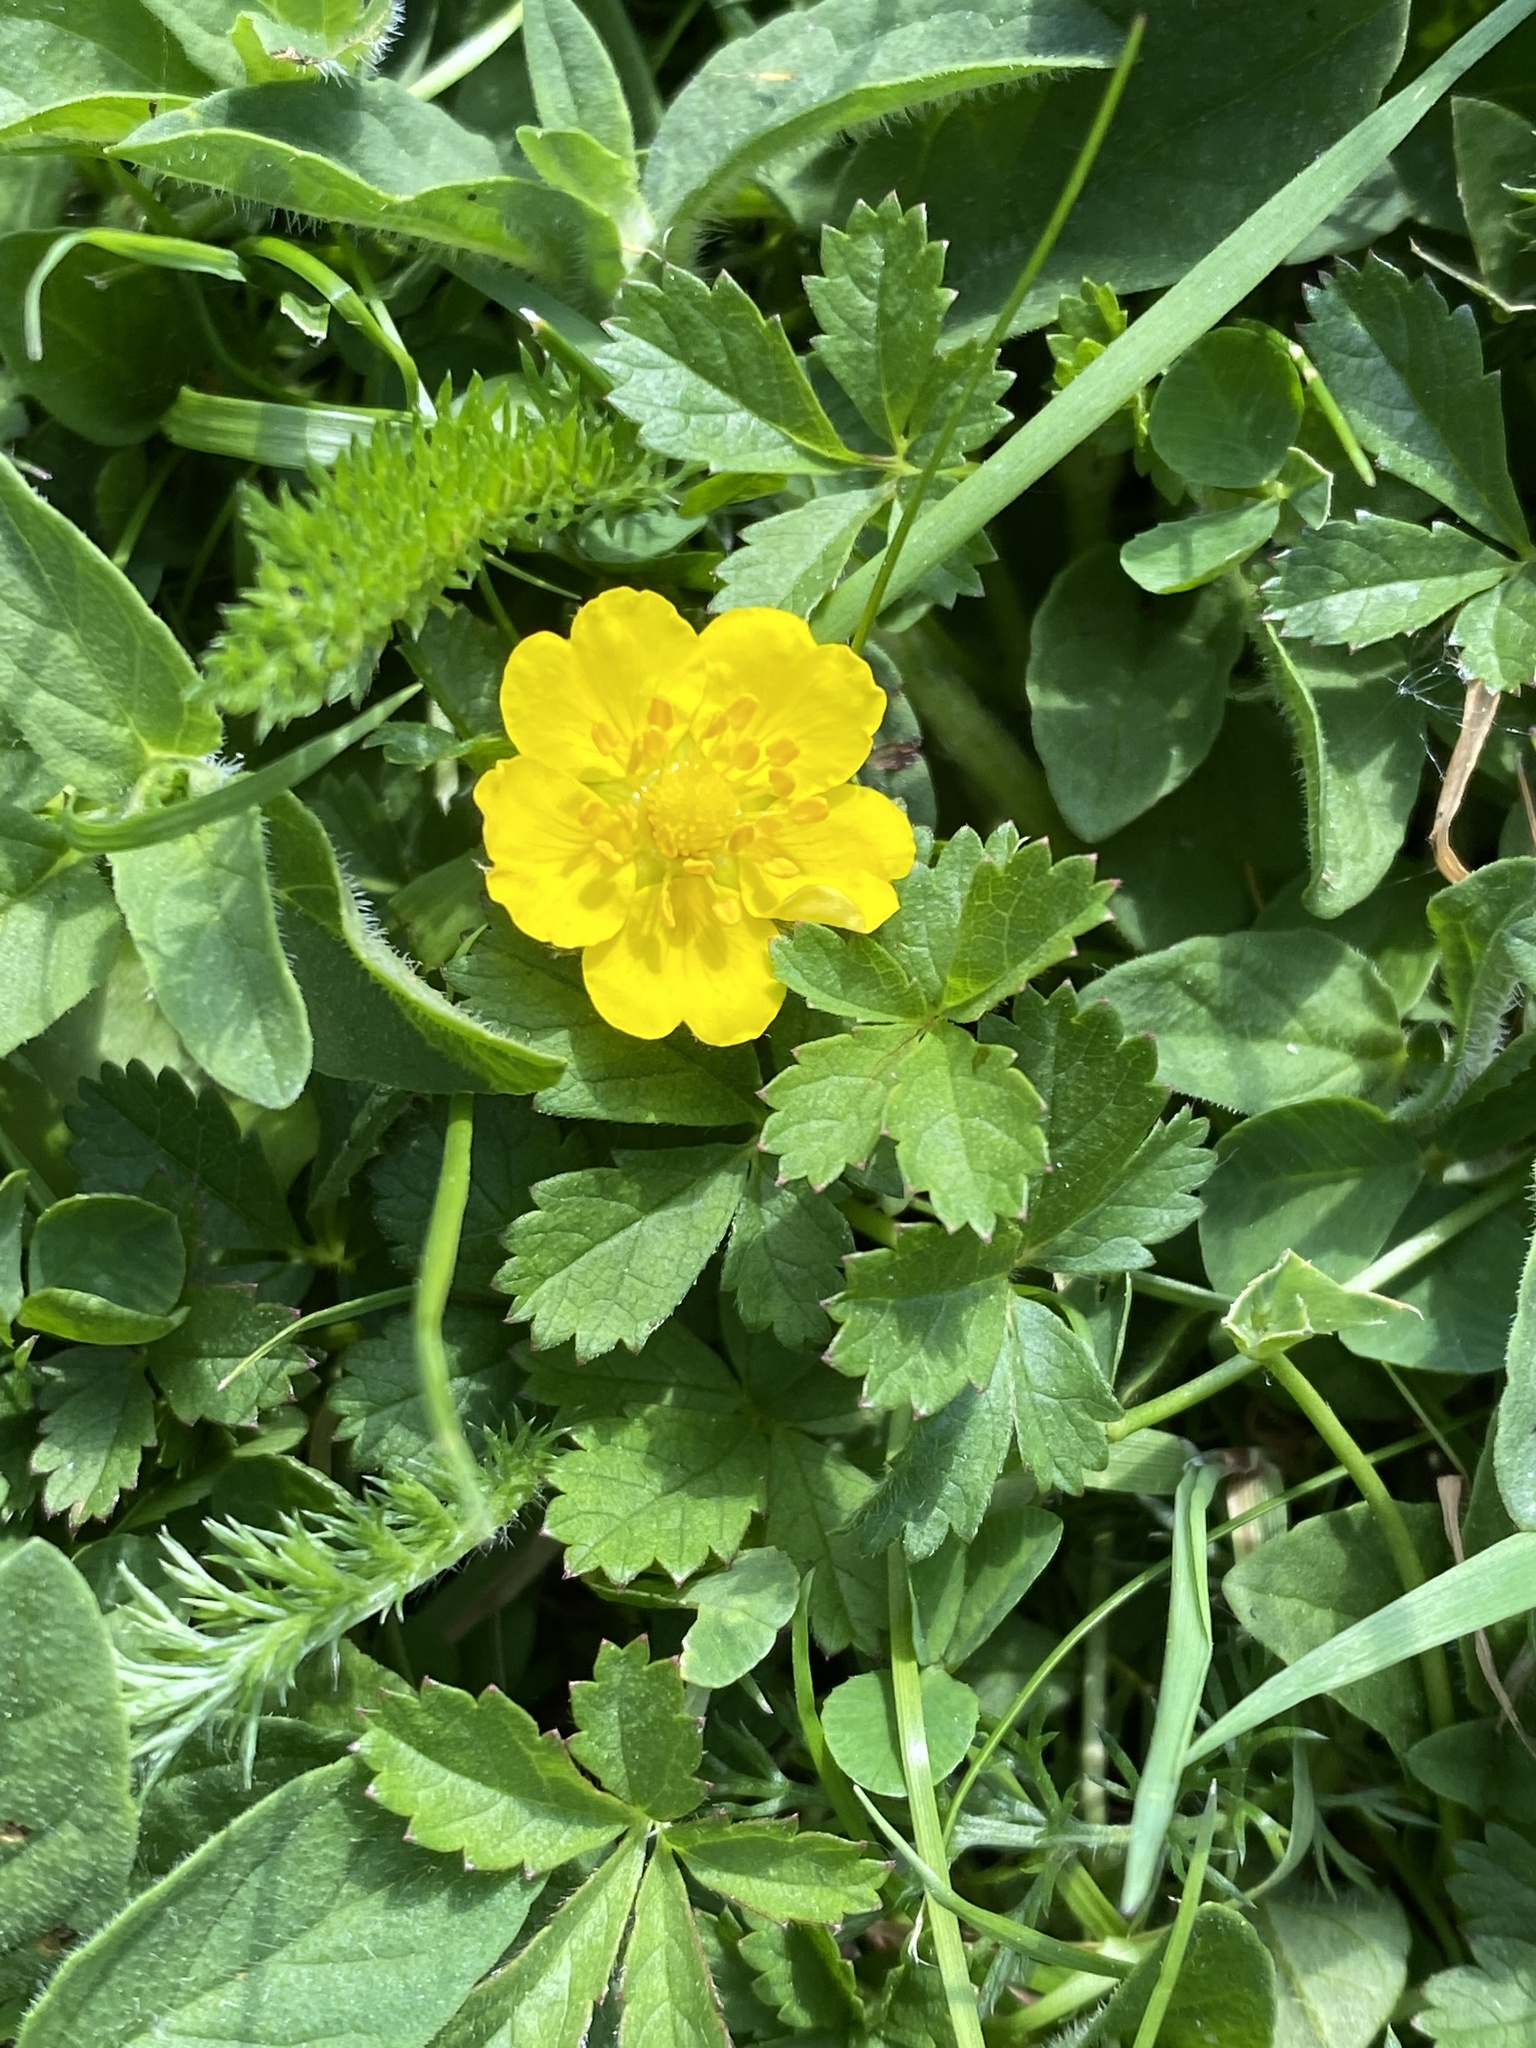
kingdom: Plantae
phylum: Tracheophyta
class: Magnoliopsida
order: Rosales
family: Rosaceae
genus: Potentilla
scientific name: Potentilla reptans
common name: Creeping cinquefoil
